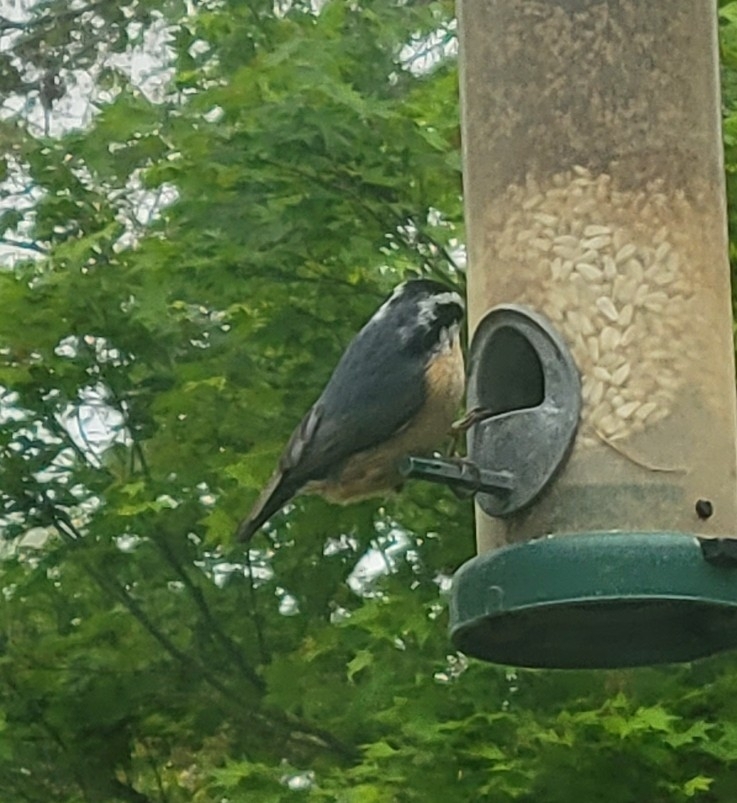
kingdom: Animalia
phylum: Chordata
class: Aves
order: Passeriformes
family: Sittidae
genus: Sitta
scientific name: Sitta canadensis
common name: Red-breasted nuthatch
